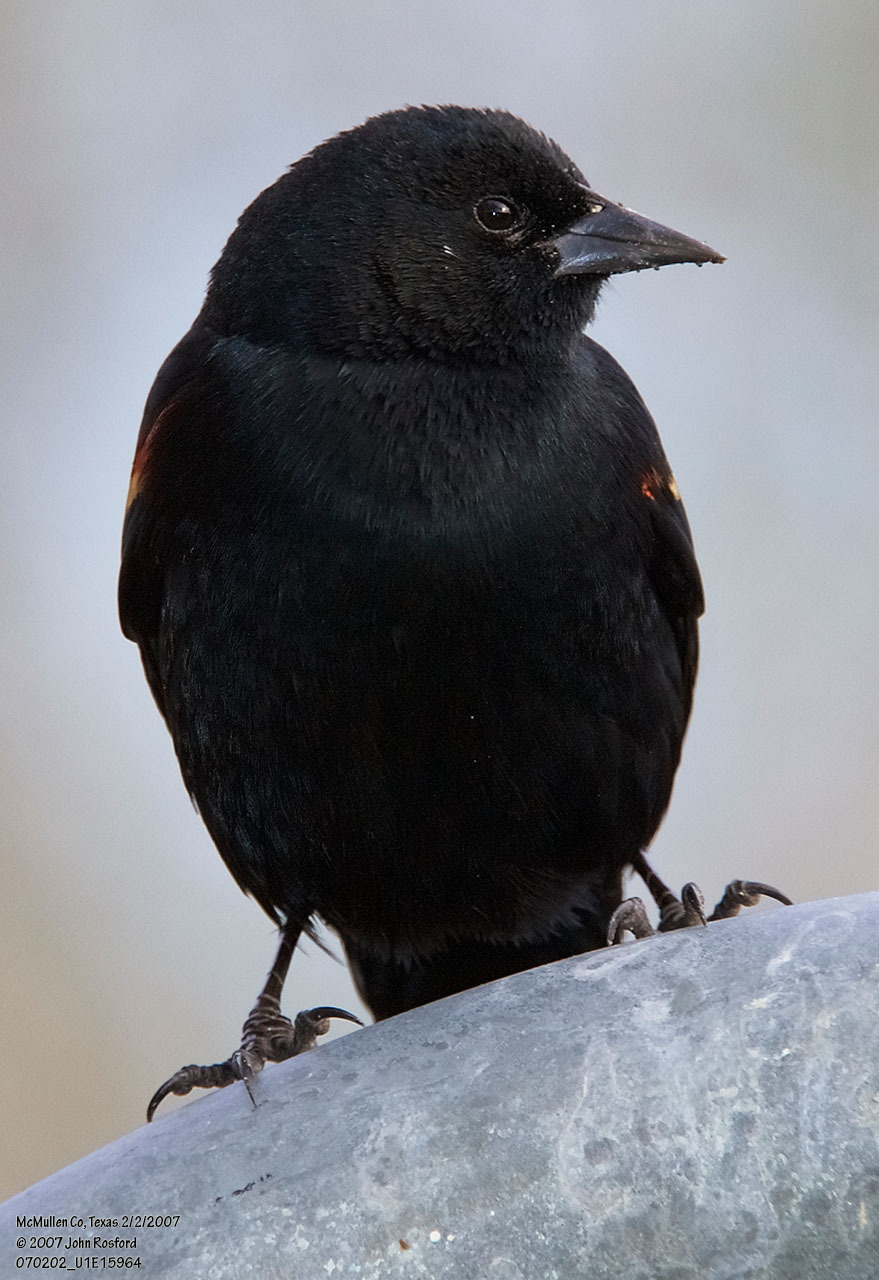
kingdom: Animalia
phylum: Chordata
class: Aves
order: Passeriformes
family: Icteridae
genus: Agelaius
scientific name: Agelaius phoeniceus
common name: Red-winged blackbird
